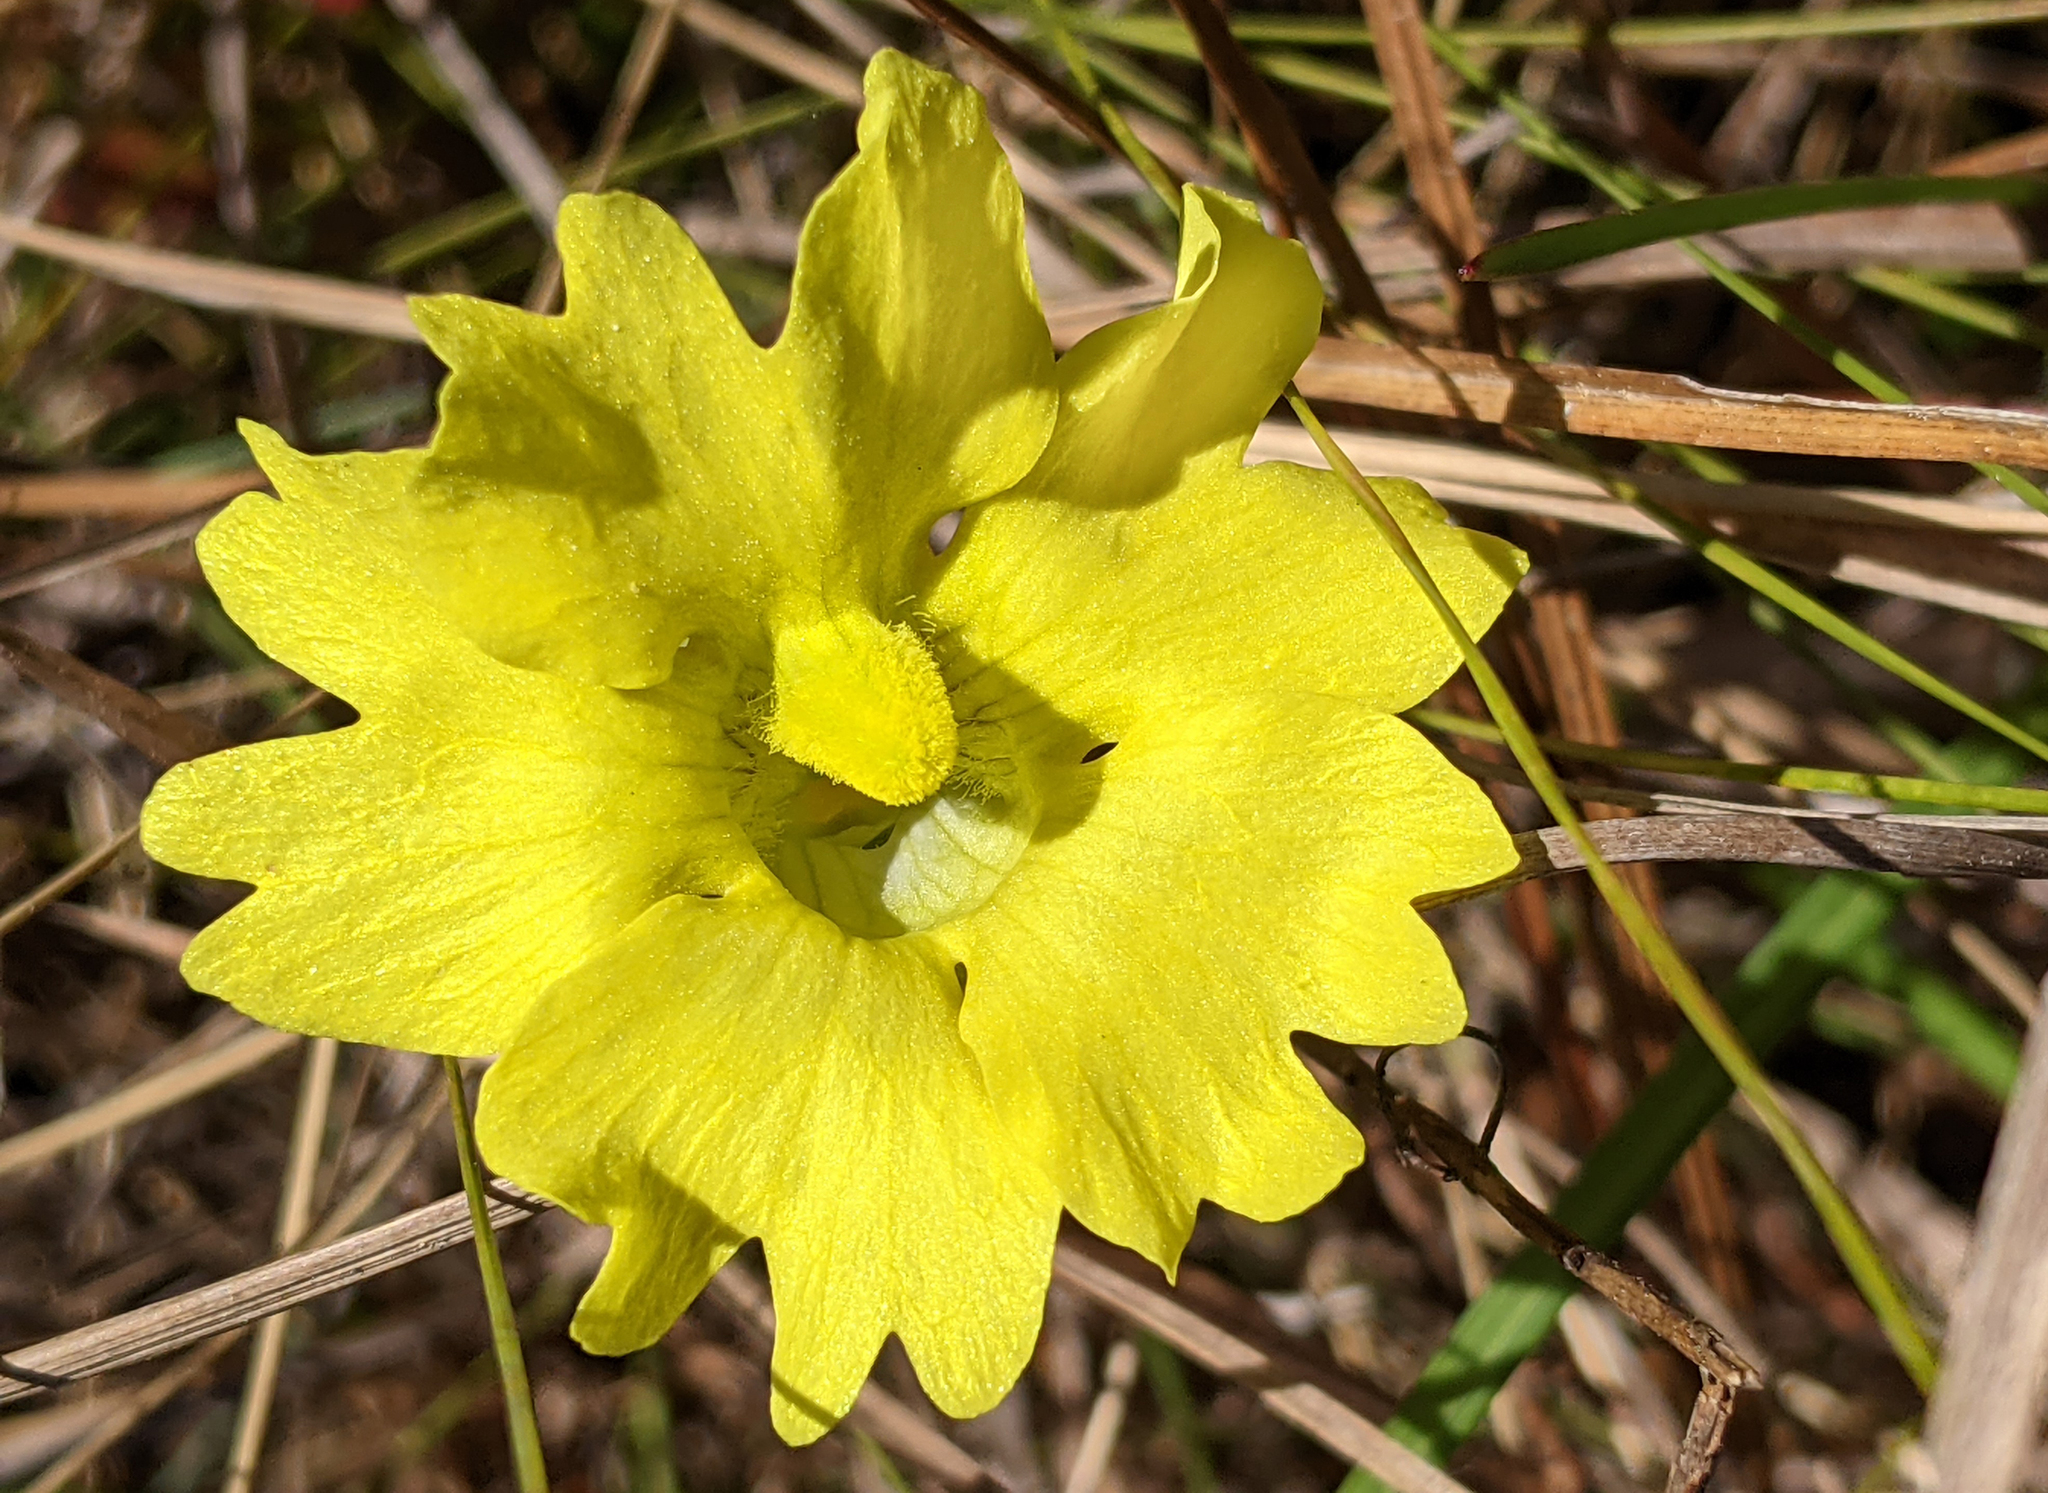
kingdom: Plantae
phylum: Tracheophyta
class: Magnoliopsida
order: Lamiales
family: Lentibulariaceae
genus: Pinguicula
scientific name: Pinguicula lutea
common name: Yellow butterwort
